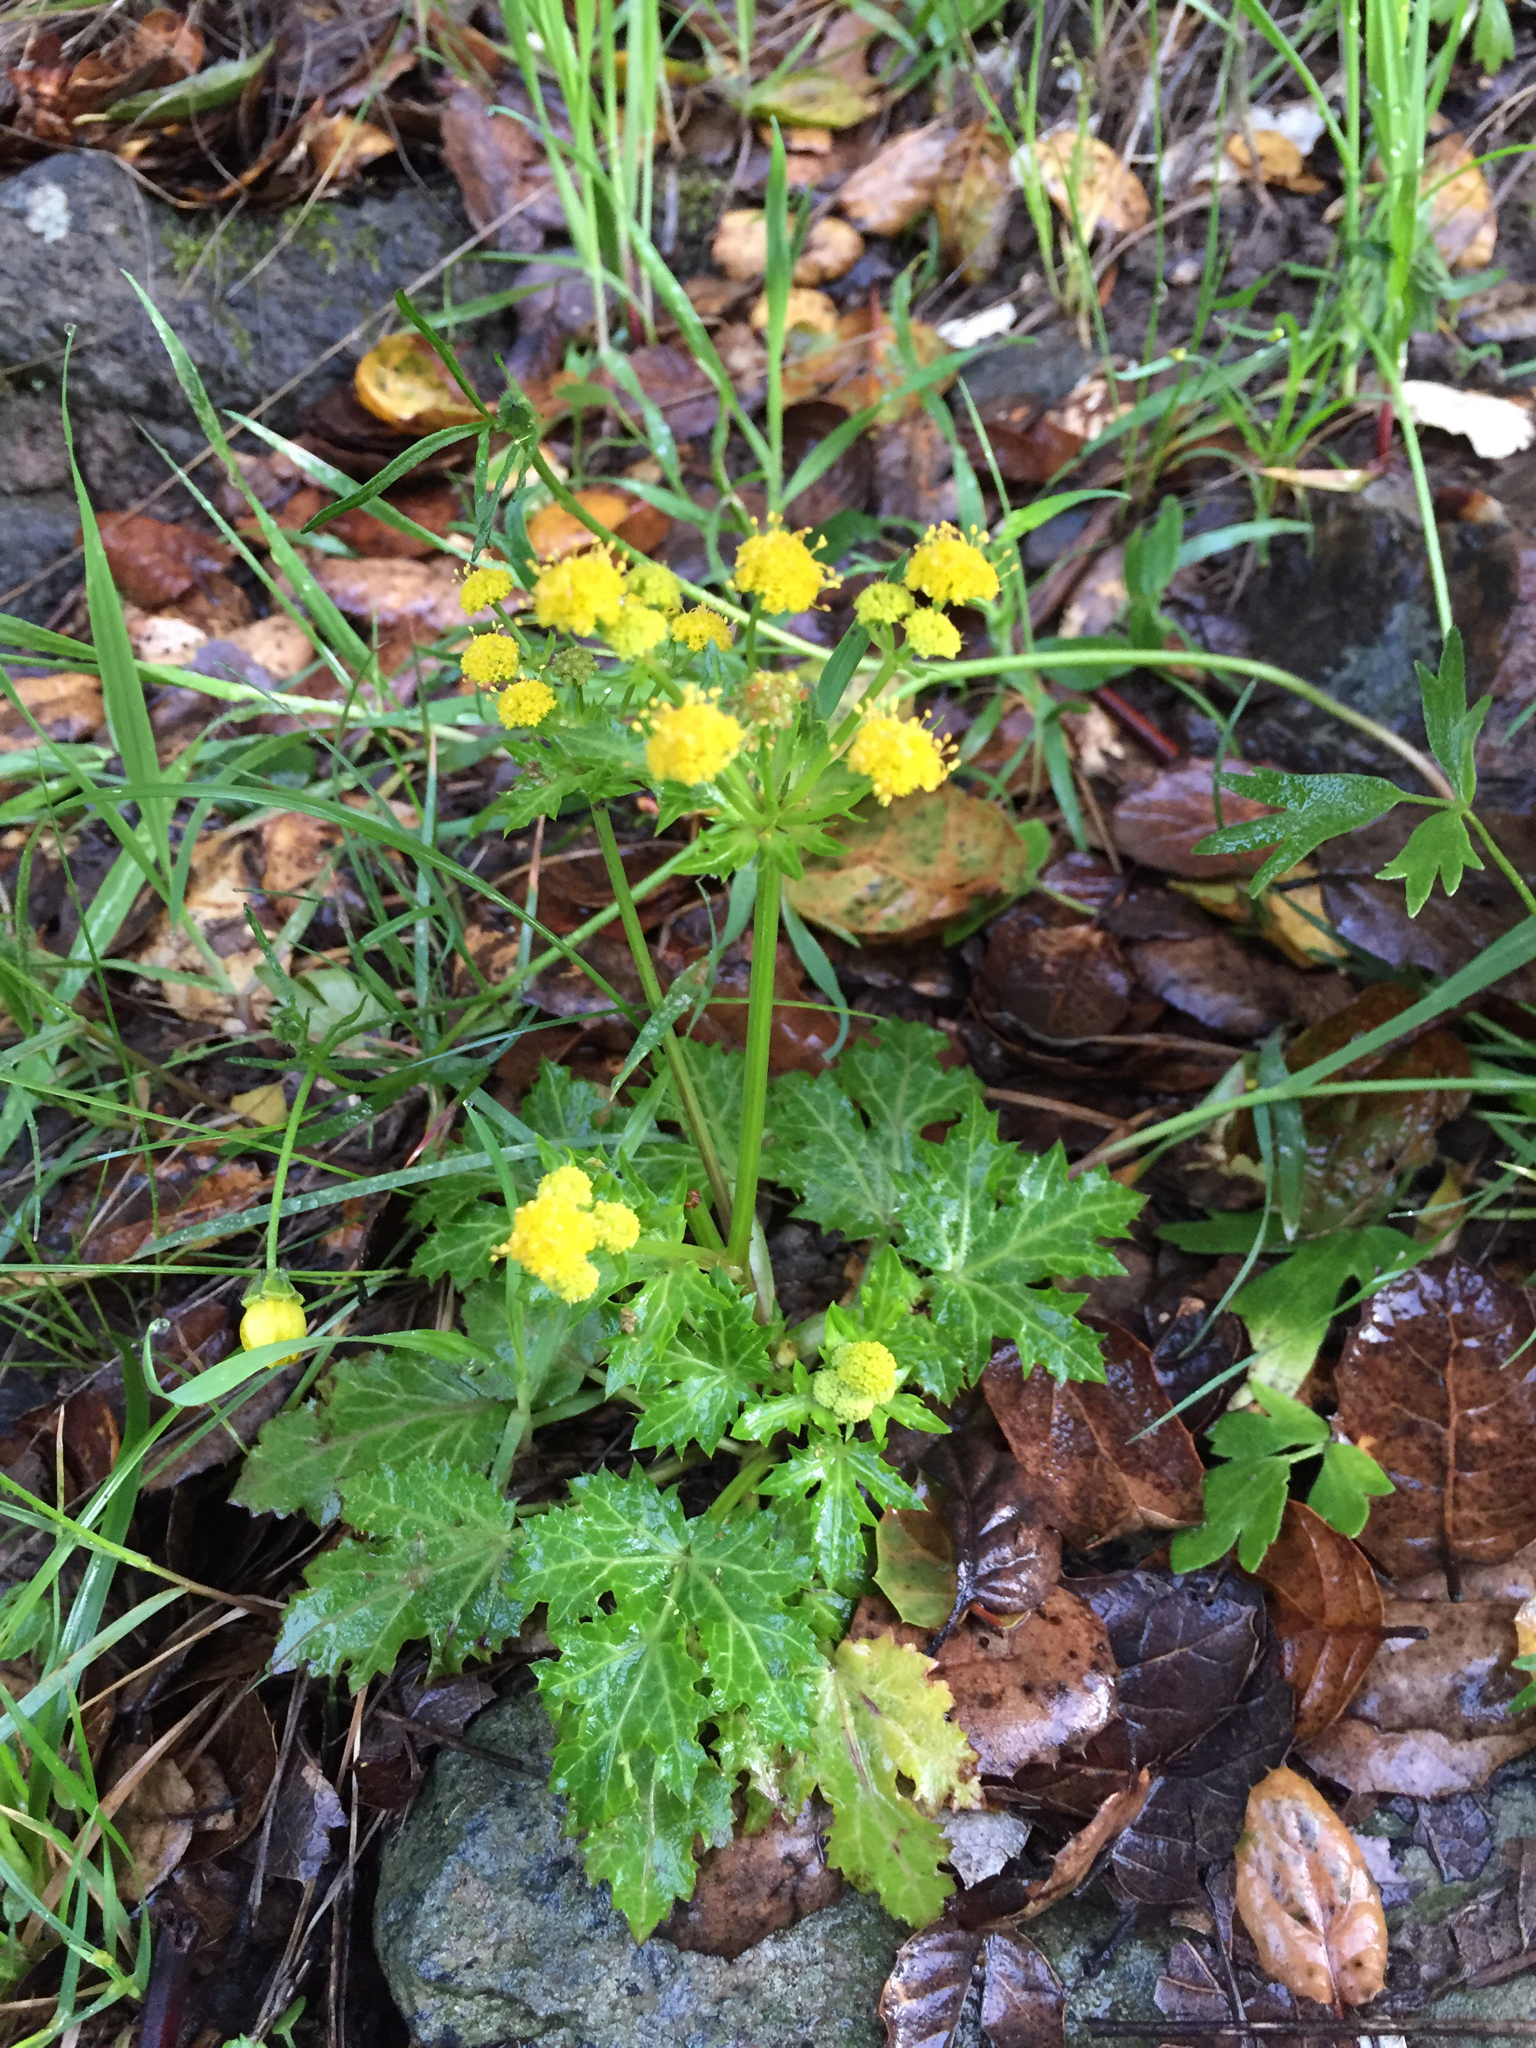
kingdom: Plantae
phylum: Tracheophyta
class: Magnoliopsida
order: Apiales
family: Apiaceae
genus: Sanicula
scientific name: Sanicula laciniata
